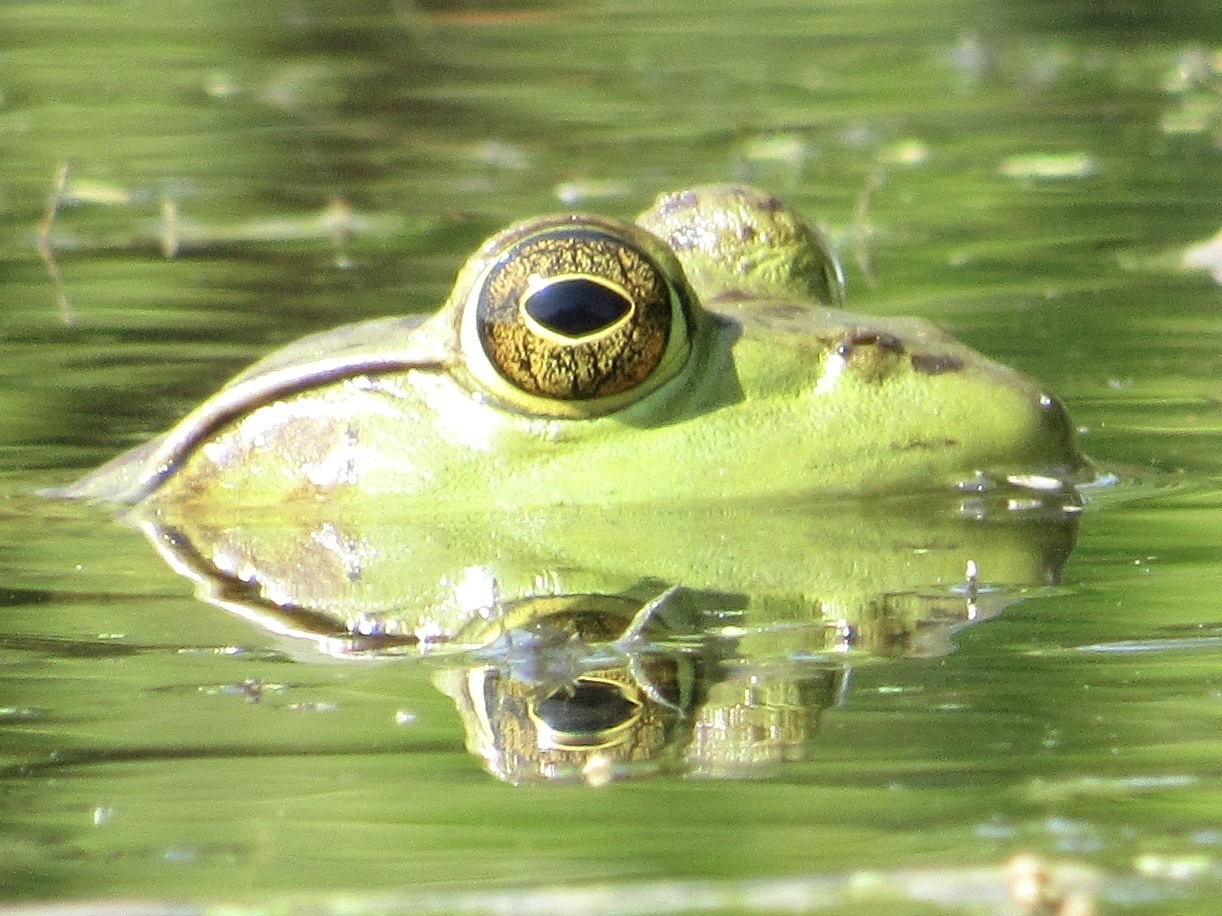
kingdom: Animalia
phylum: Chordata
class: Amphibia
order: Anura
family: Ranidae
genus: Lithobates
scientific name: Lithobates catesbeianus
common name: American bullfrog
